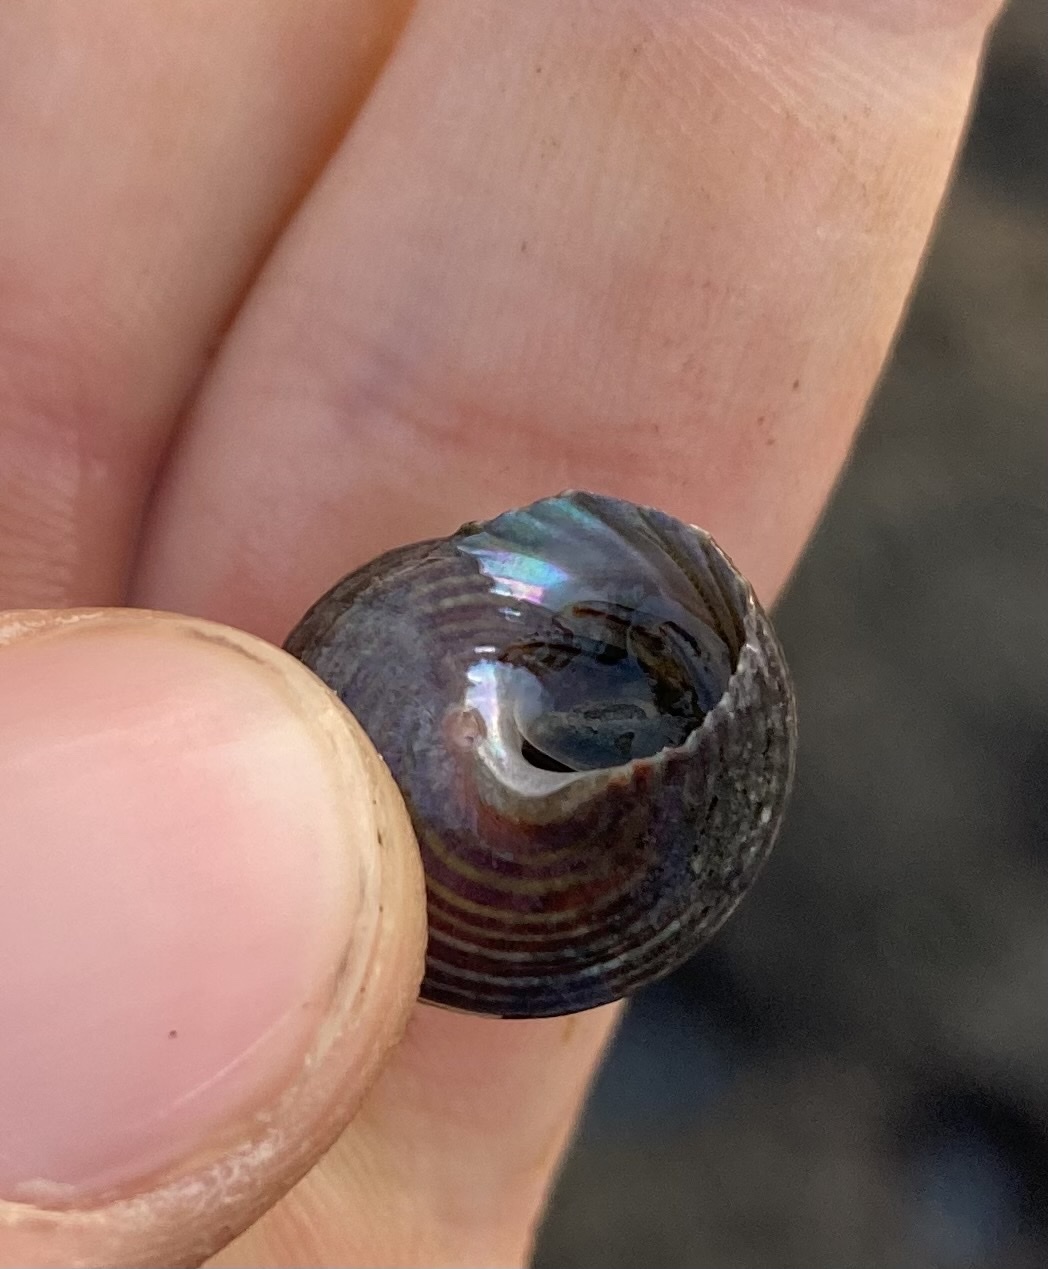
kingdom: Animalia
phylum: Mollusca
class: Gastropoda
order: Trochida
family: Calliostomatidae
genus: Calliostoma
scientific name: Calliostoma ligatum
